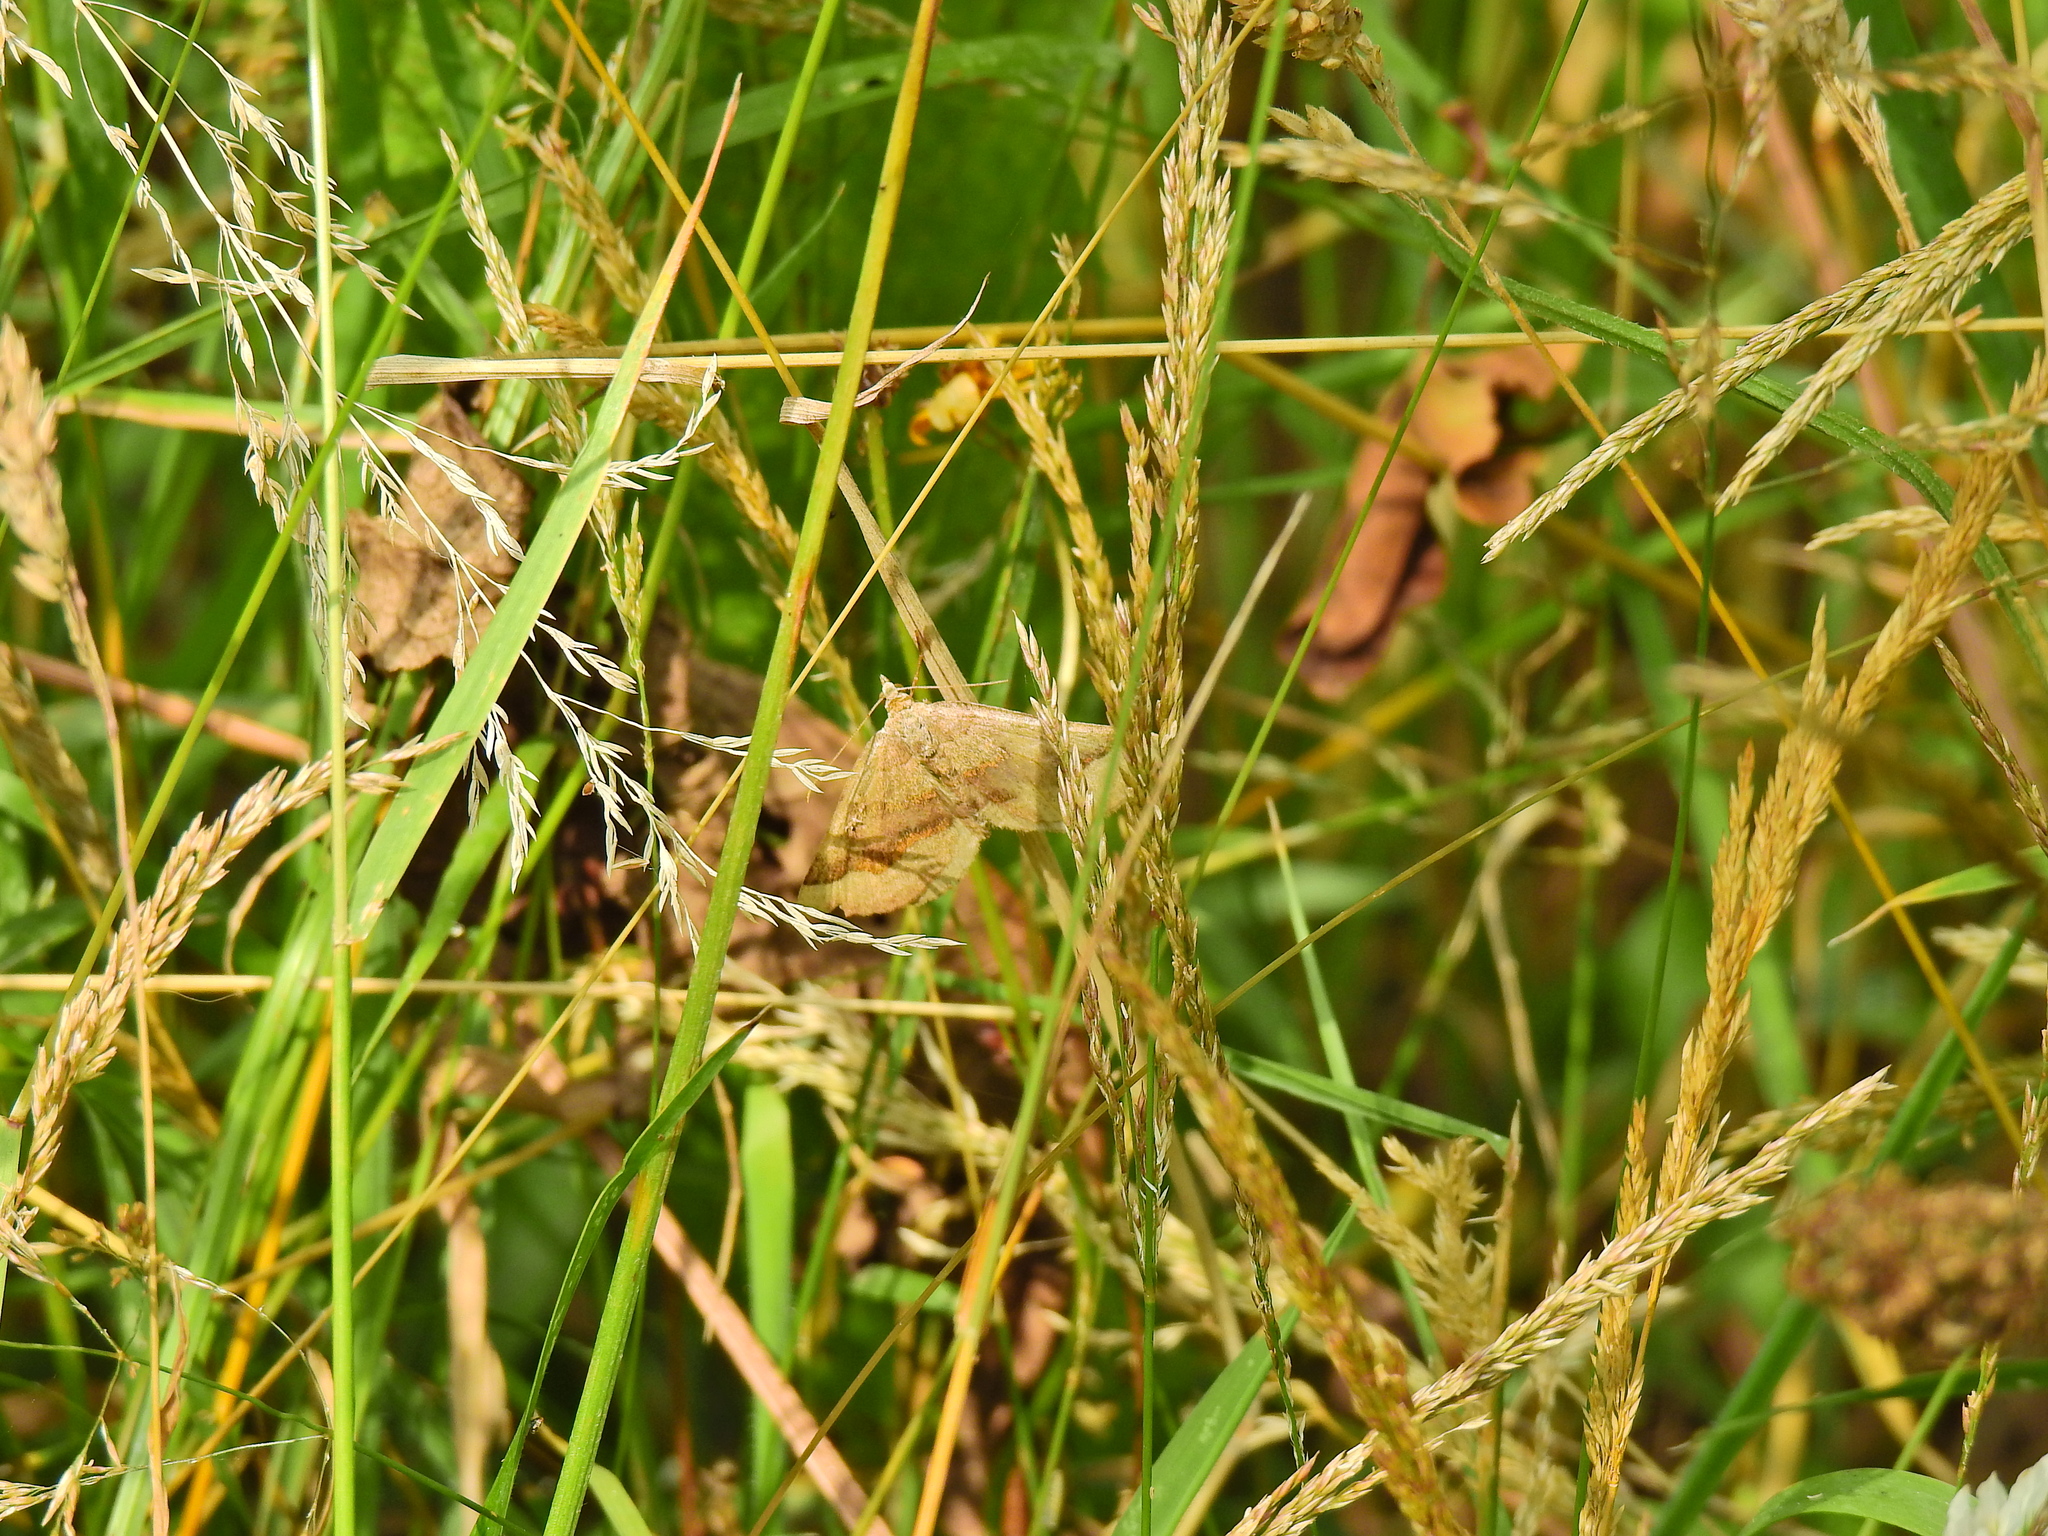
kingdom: Animalia
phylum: Arthropoda
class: Insecta
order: Lepidoptera
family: Geometridae
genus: Scotopteryx
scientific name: Scotopteryx chenopodiata
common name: Shaded broad-bar
